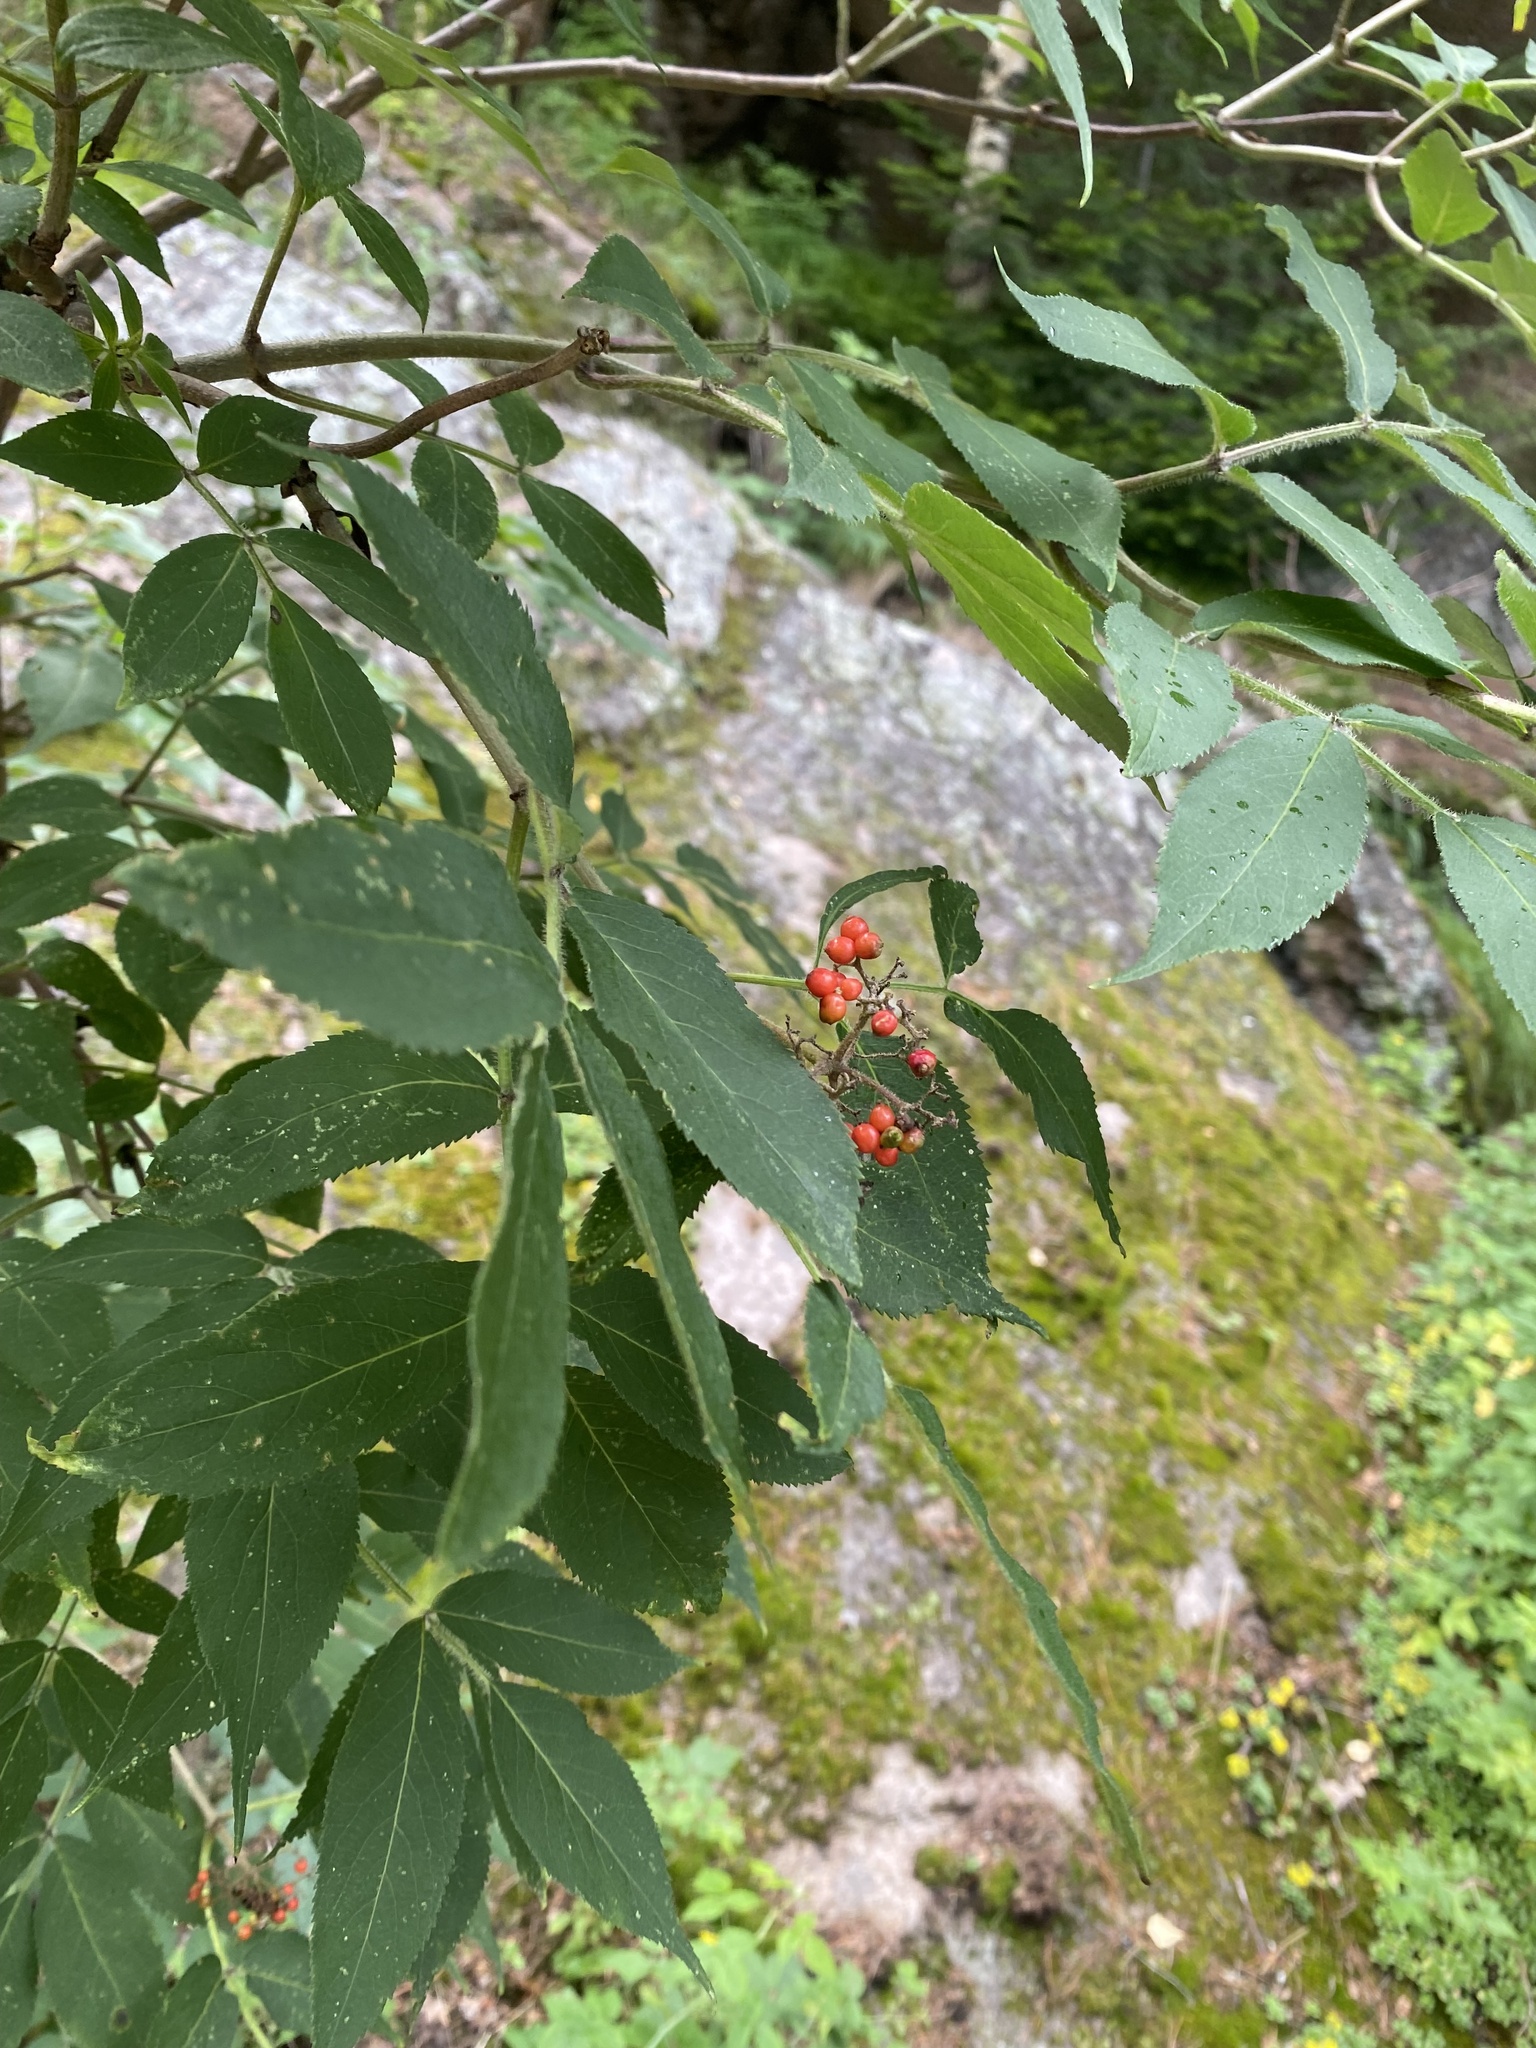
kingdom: Plantae
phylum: Tracheophyta
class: Magnoliopsida
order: Dipsacales
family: Viburnaceae
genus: Sambucus
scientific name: Sambucus sibirica
